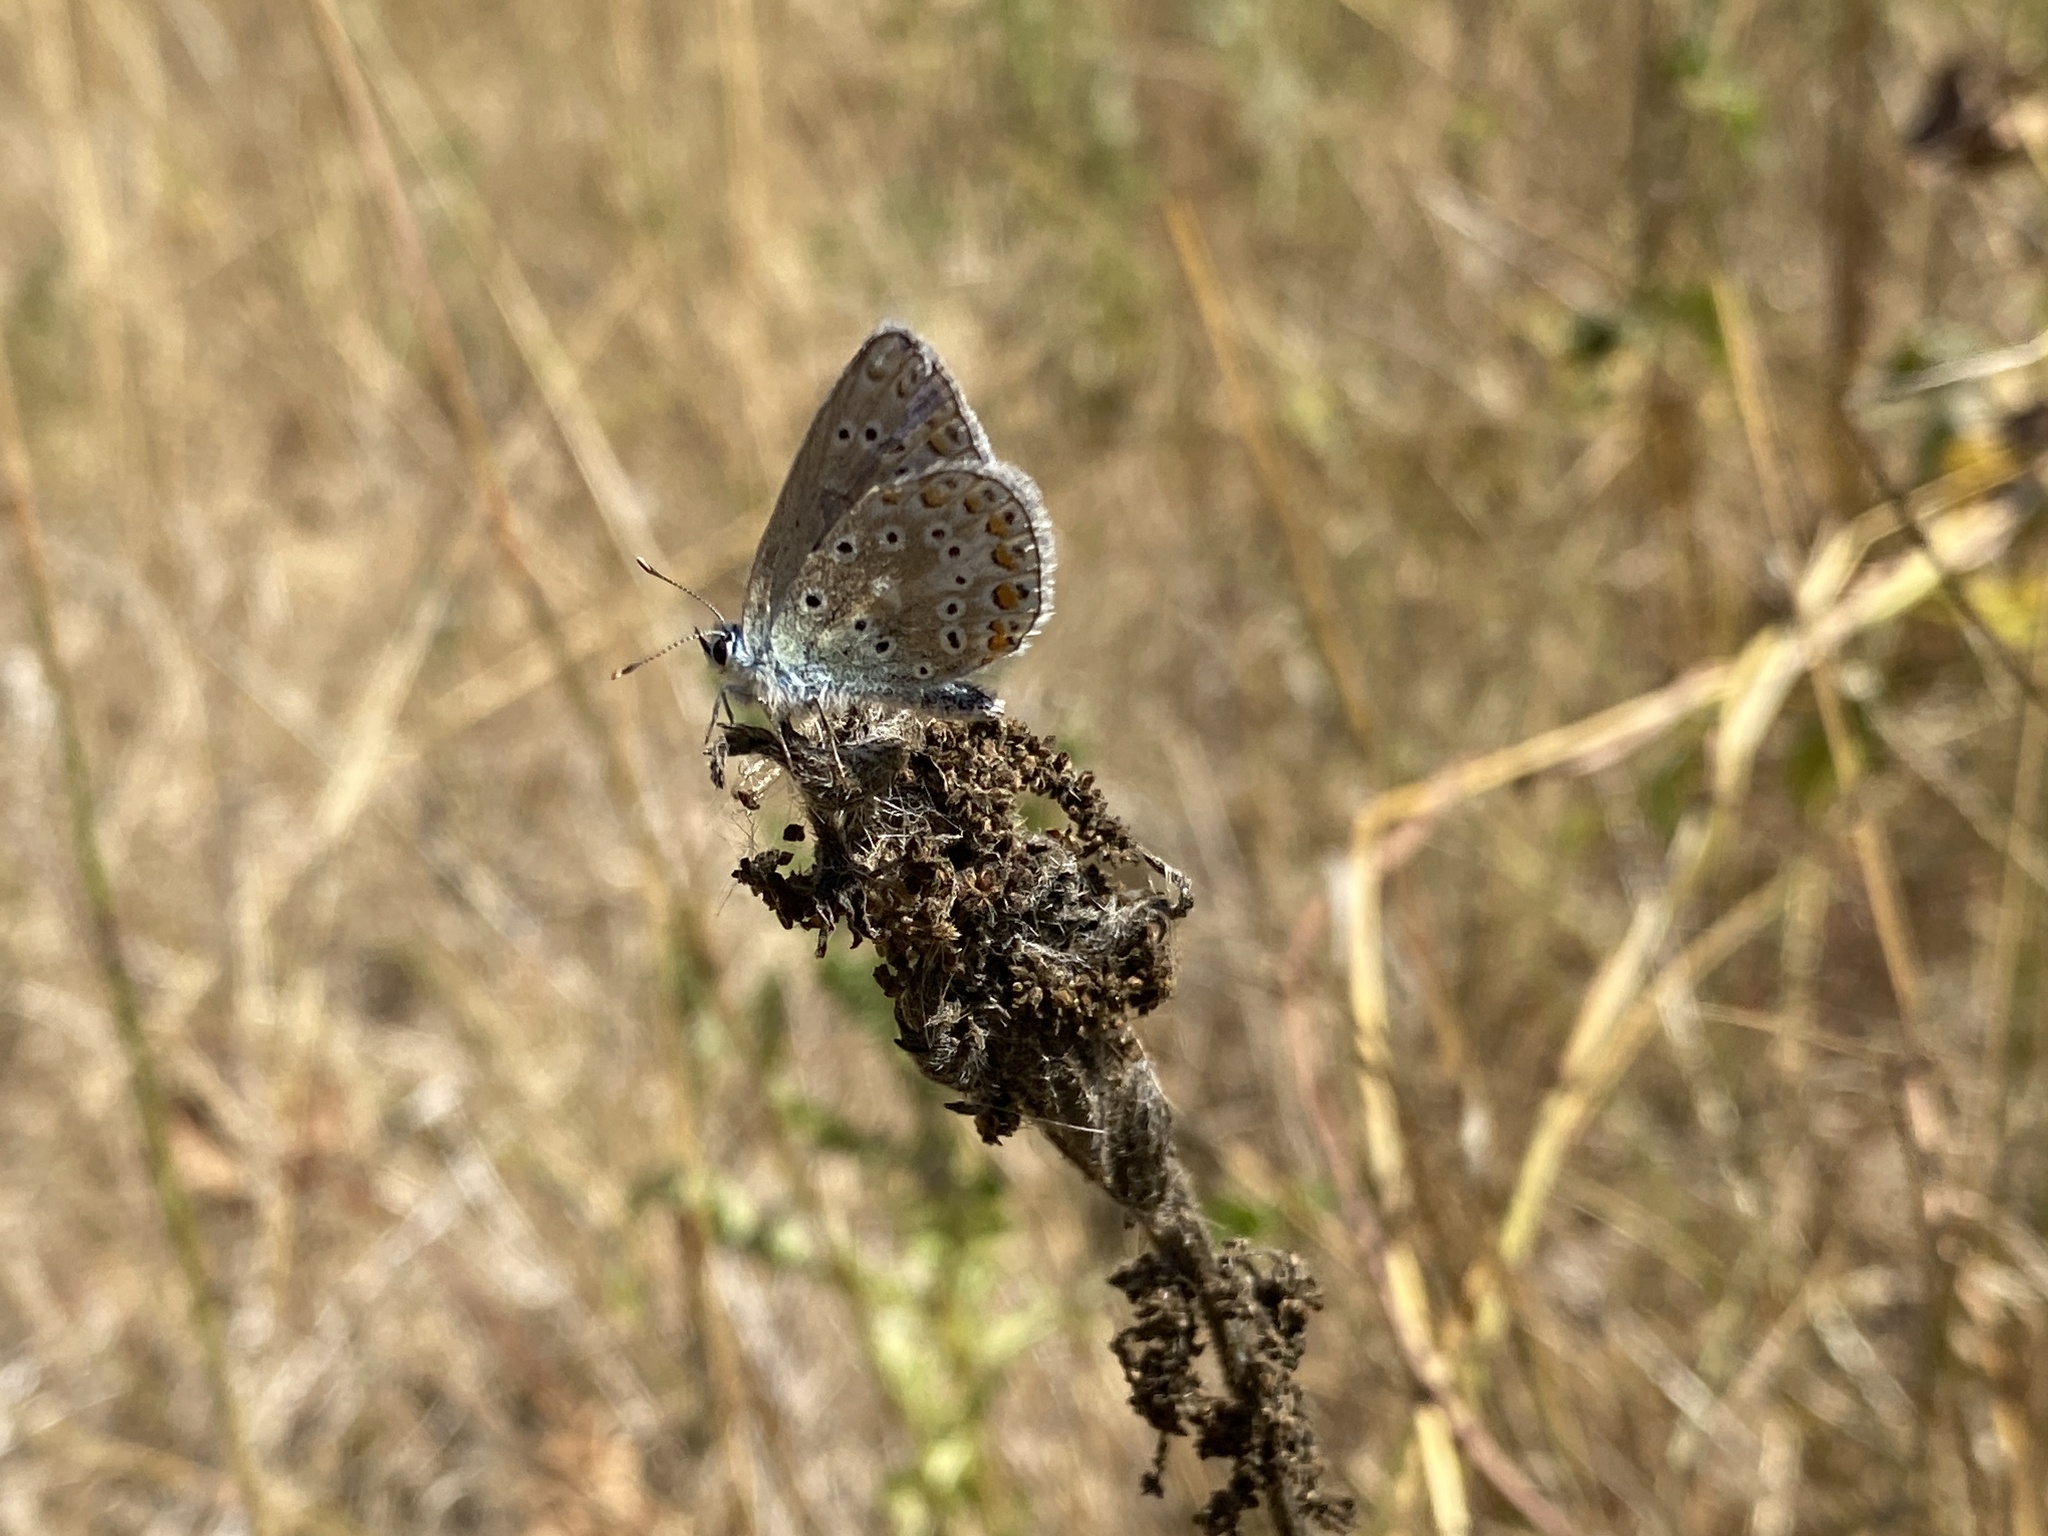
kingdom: Animalia
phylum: Arthropoda
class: Insecta
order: Lepidoptera
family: Lycaenidae
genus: Polyommatus
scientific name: Polyommatus icarus
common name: Common blue
